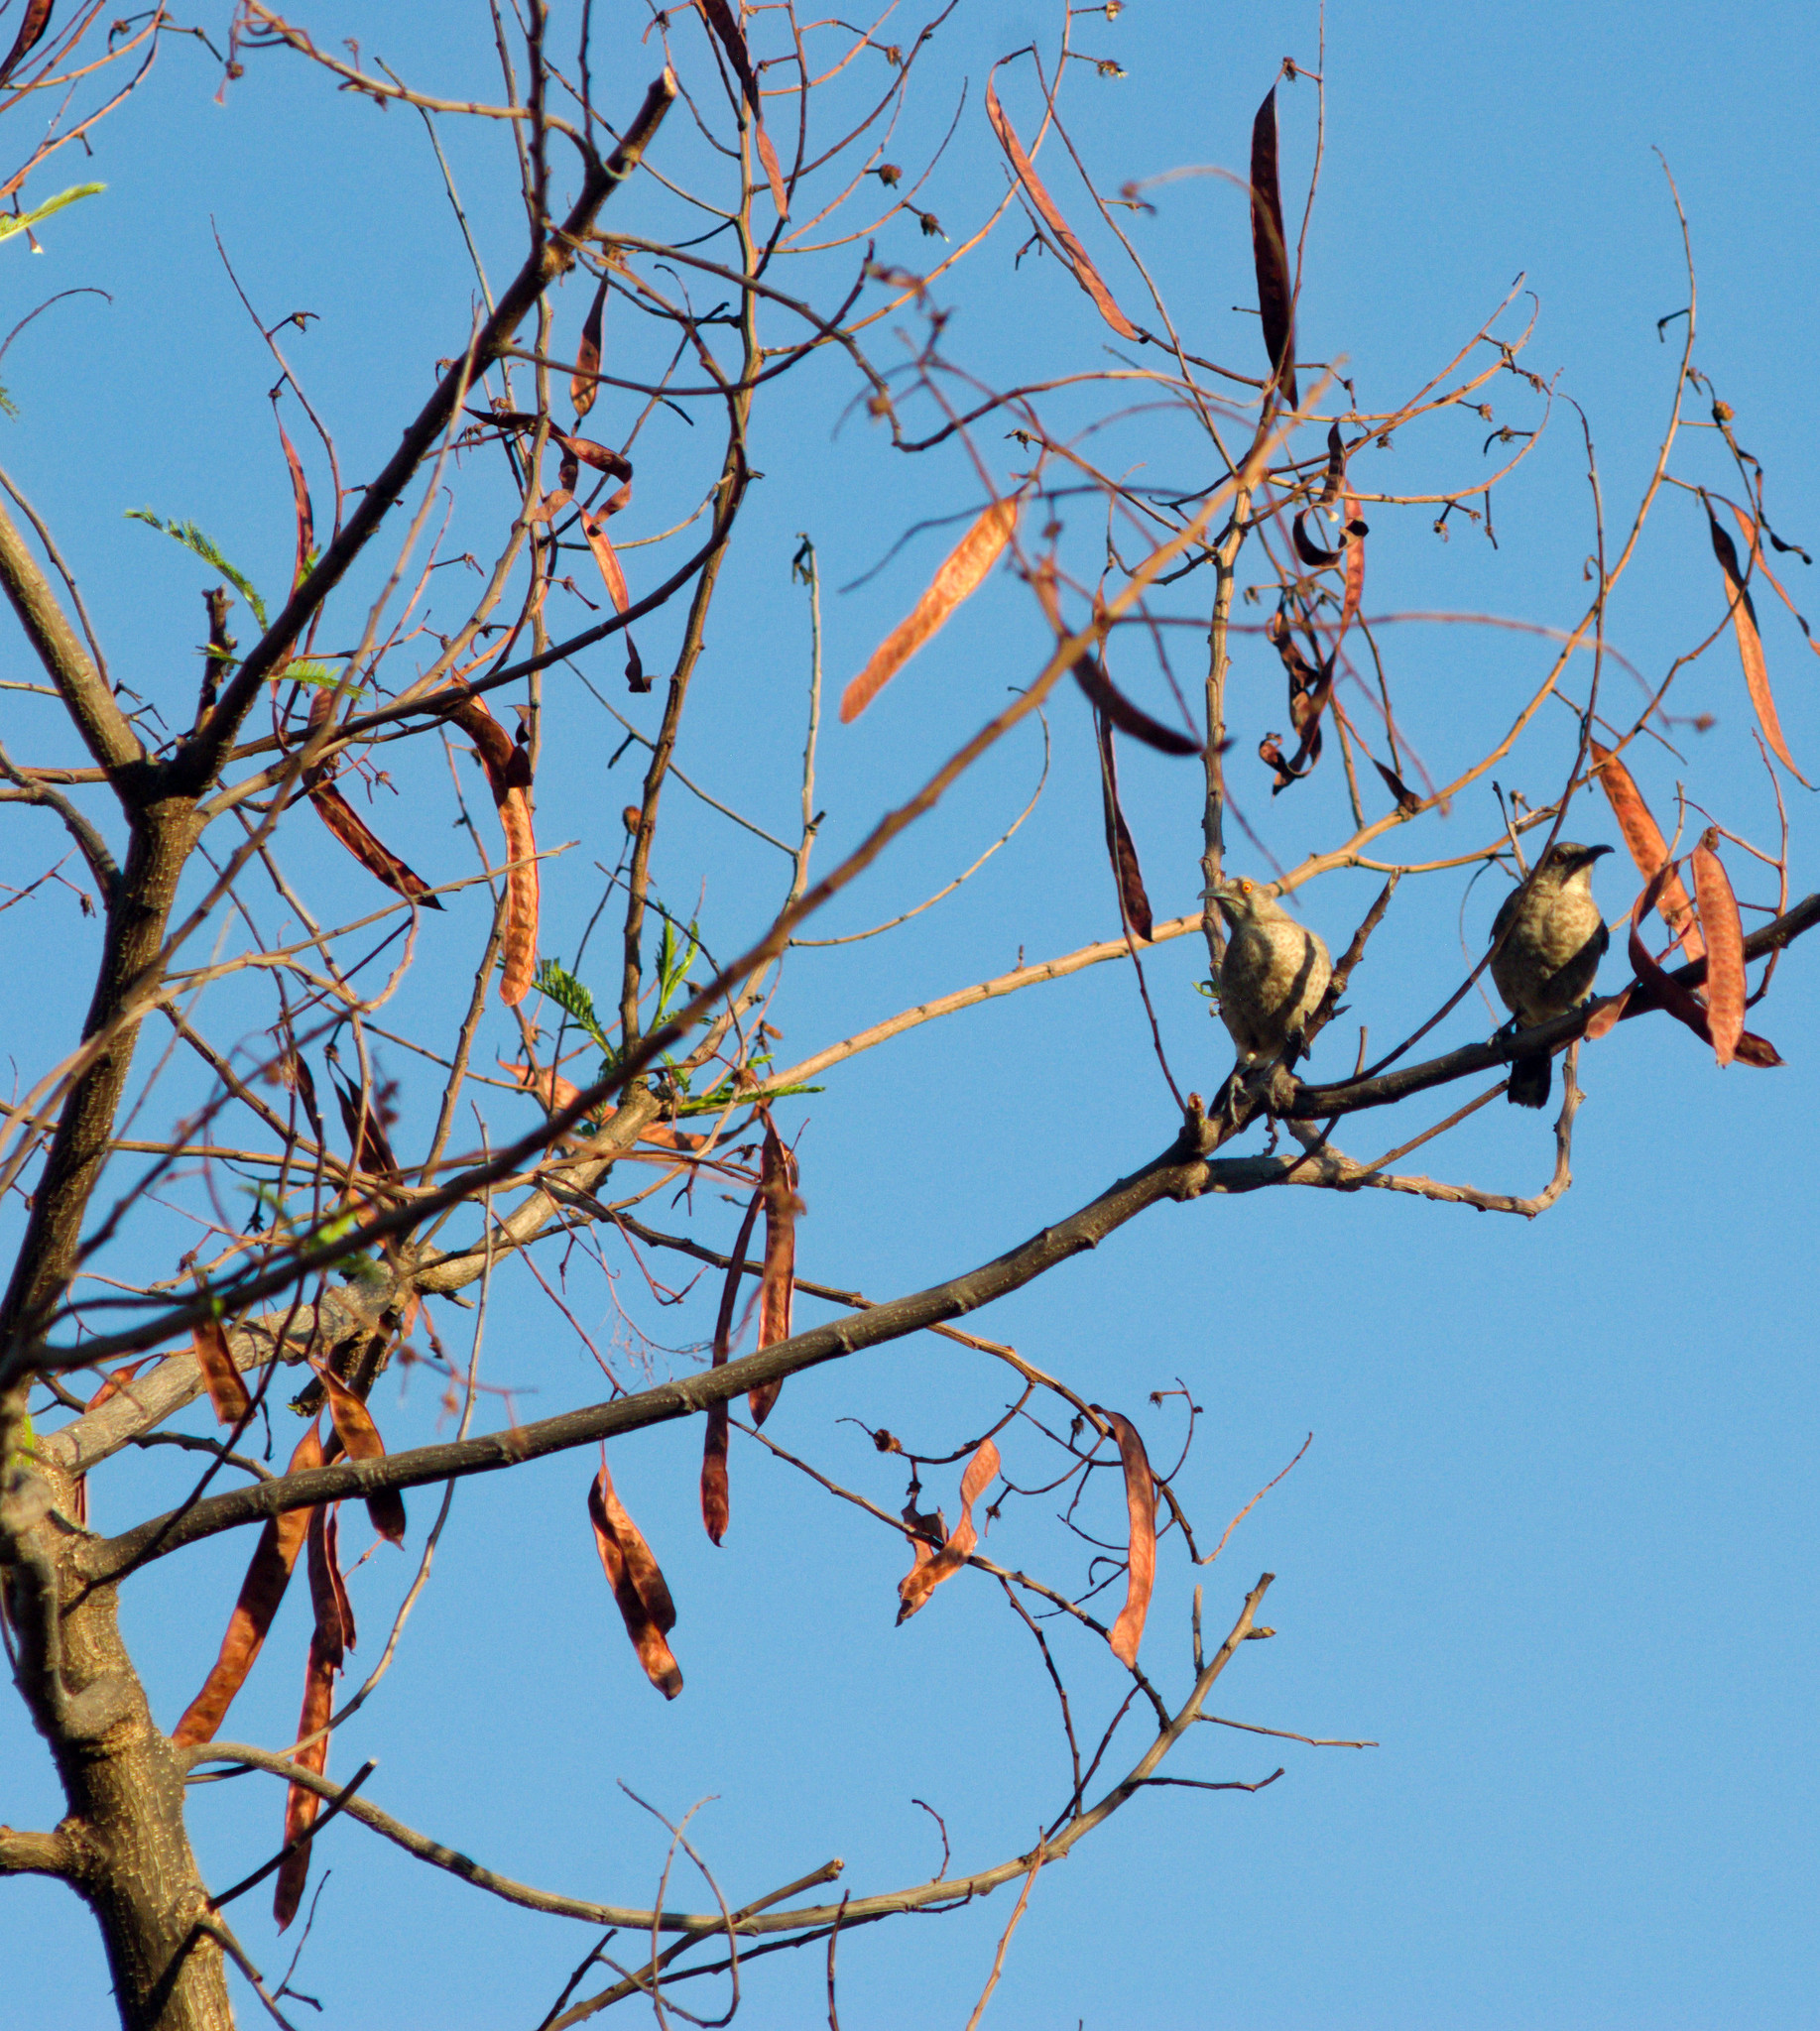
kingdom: Animalia
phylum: Chordata
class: Aves
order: Passeriformes
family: Mimidae
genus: Toxostoma
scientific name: Toxostoma curvirostre
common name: Curve-billed thrasher
